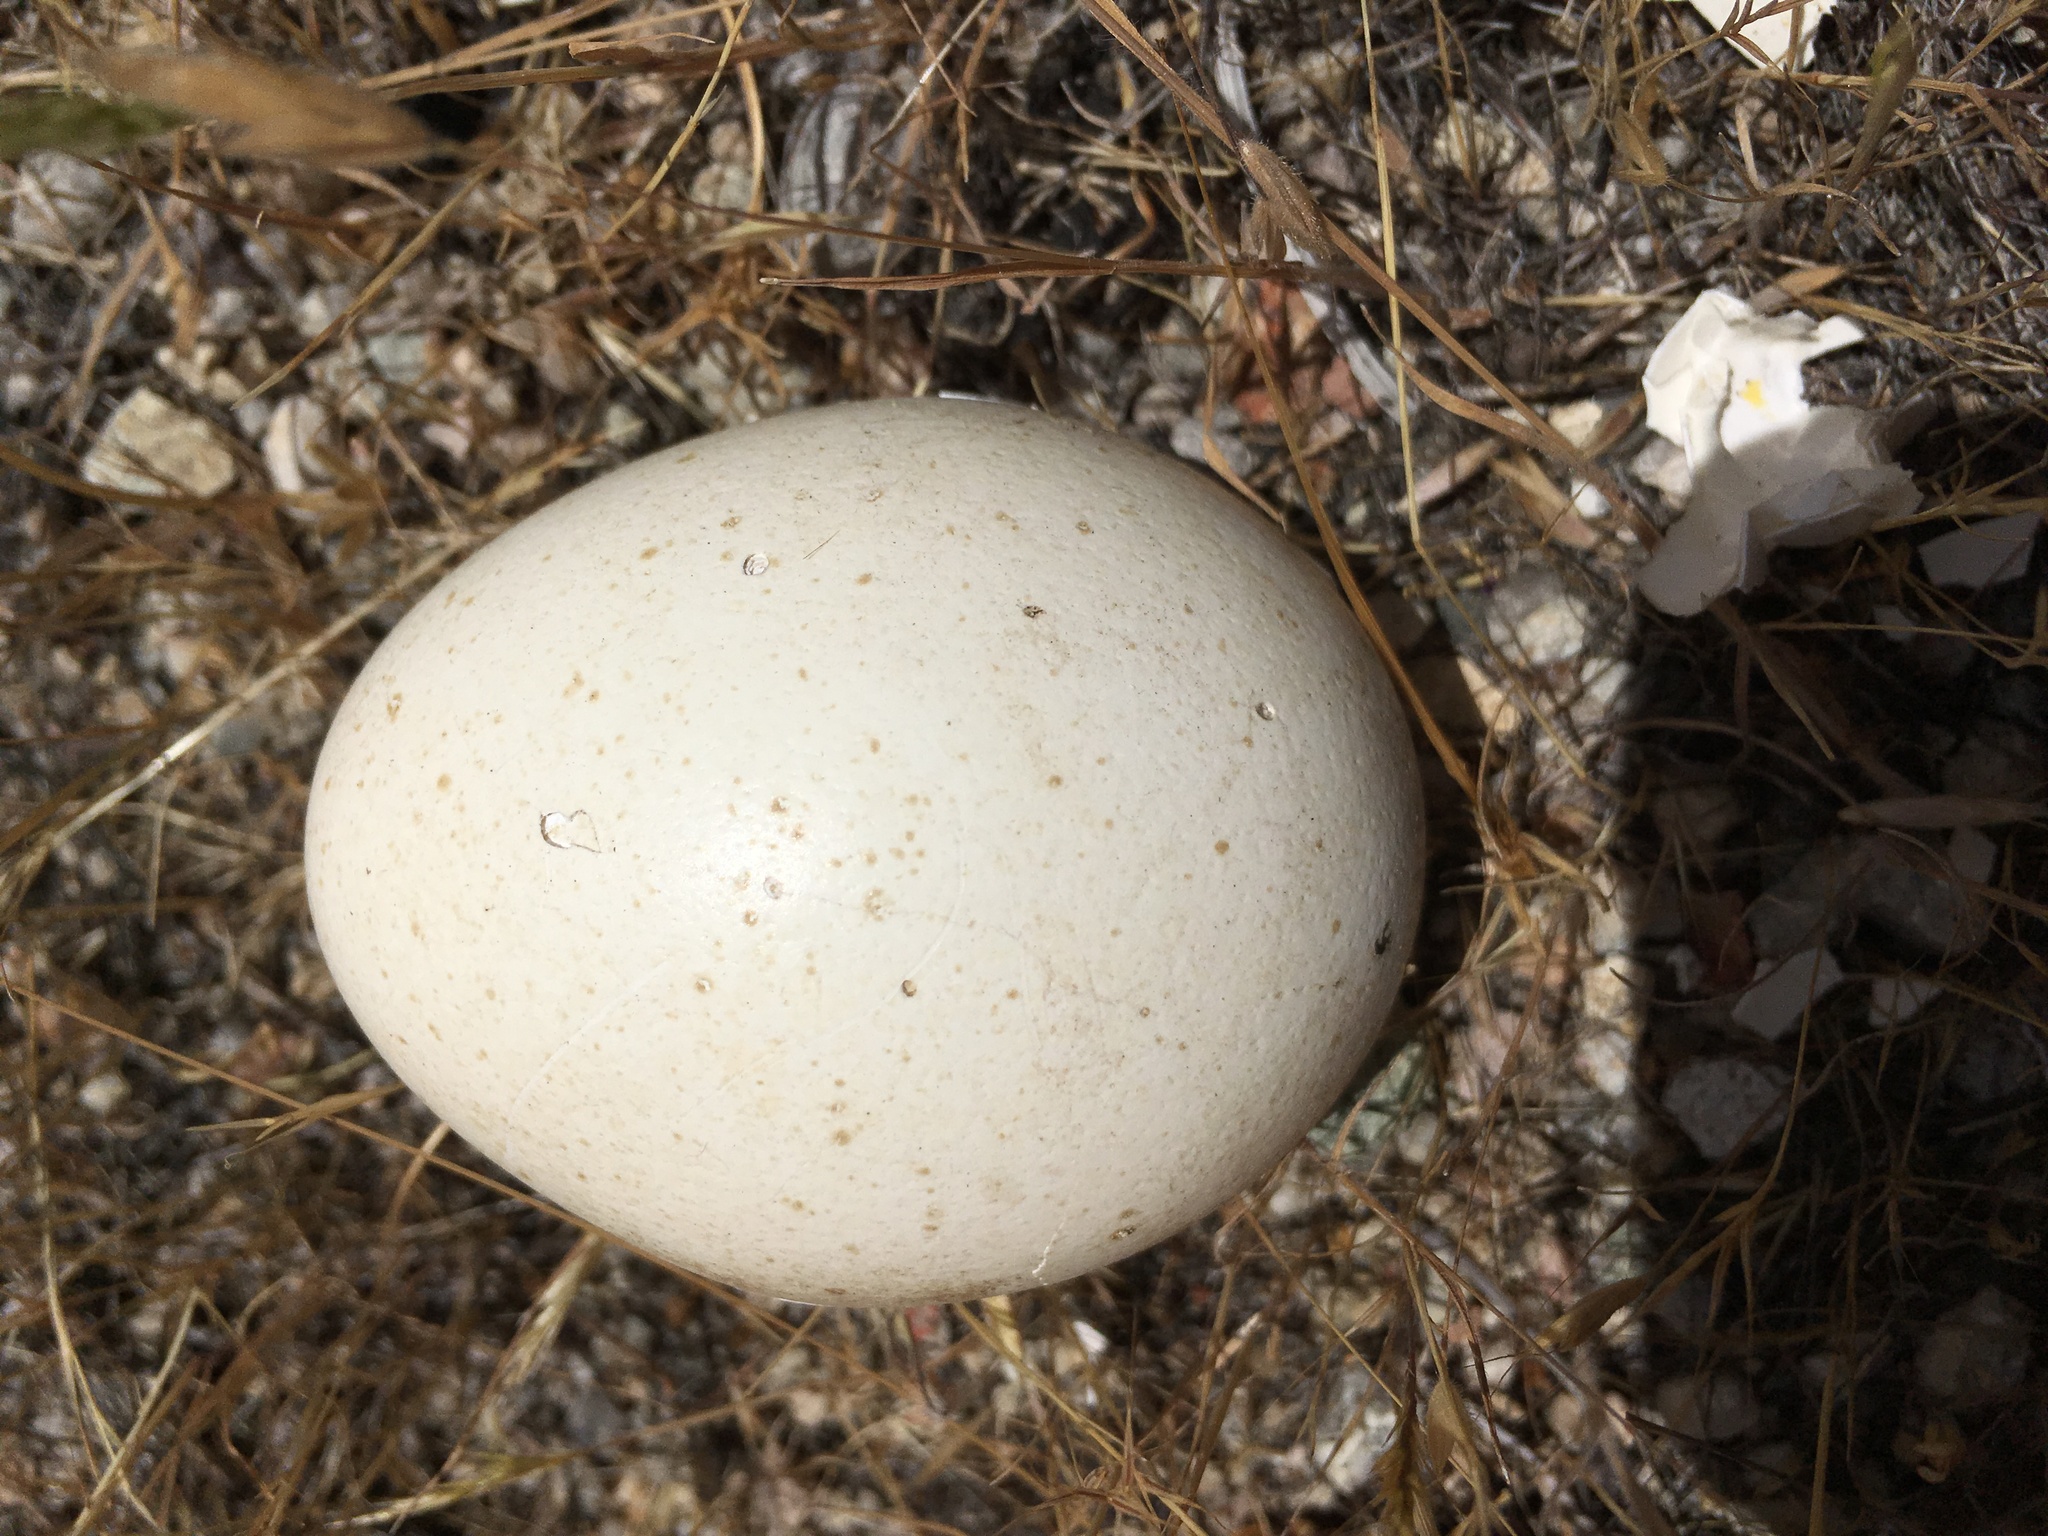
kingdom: Animalia
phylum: Chordata
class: Aves
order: Galliformes
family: Phasianidae
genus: Meleagris
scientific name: Meleagris gallopavo
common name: Wild turkey
